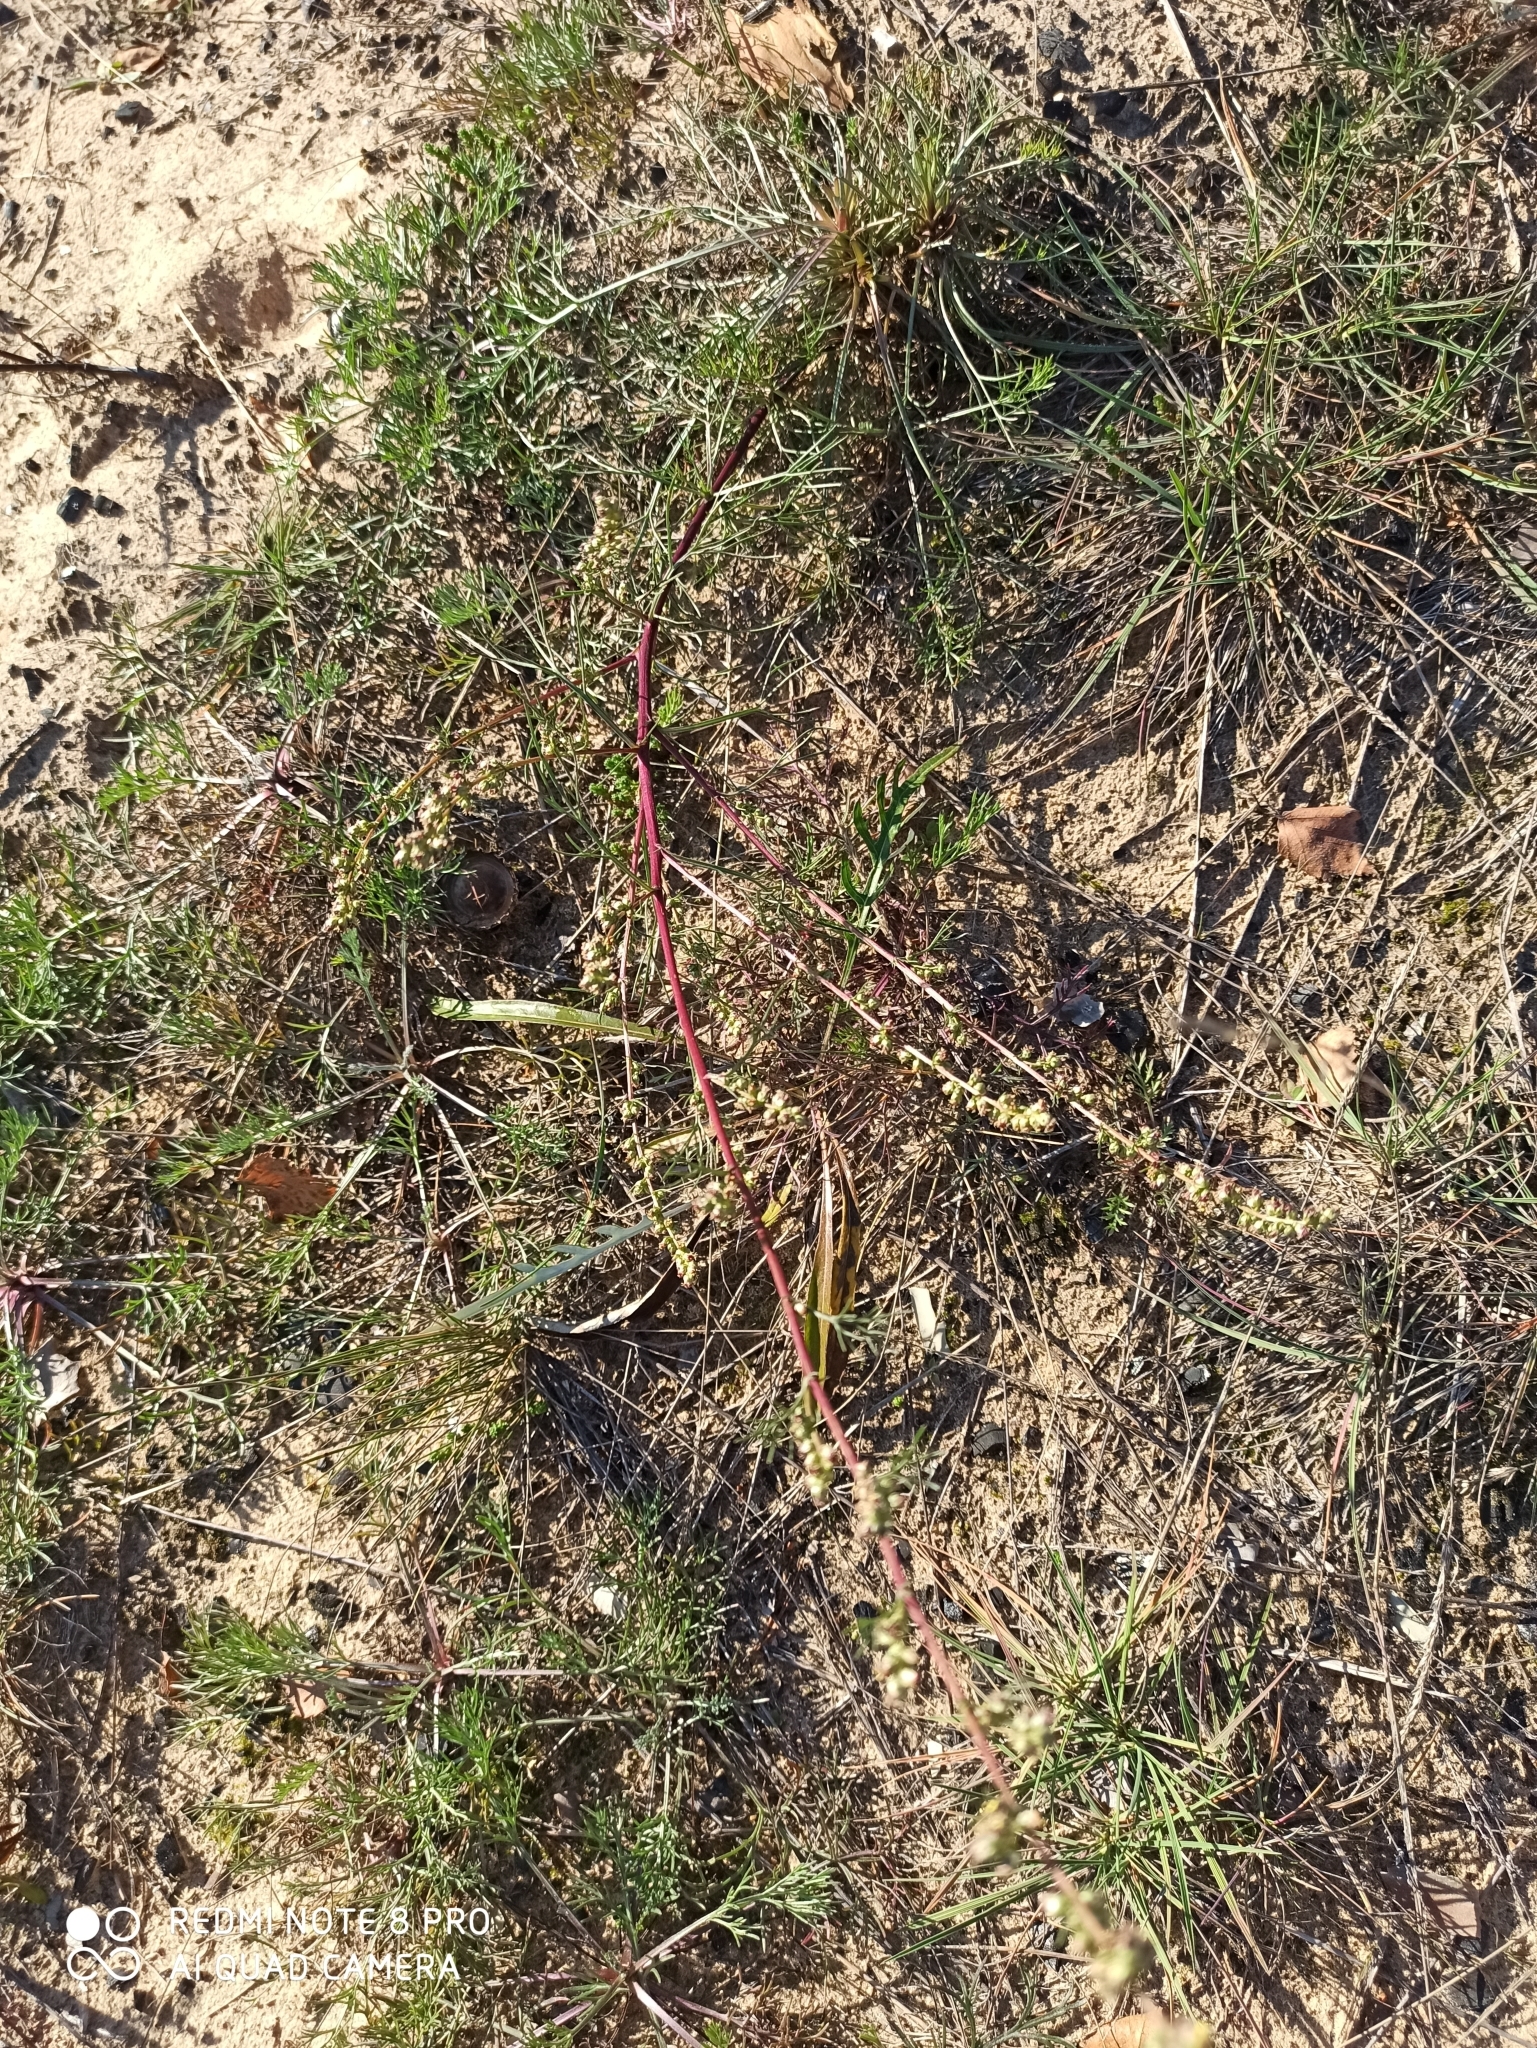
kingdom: Plantae
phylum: Tracheophyta
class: Magnoliopsida
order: Asterales
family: Asteraceae
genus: Artemisia
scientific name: Artemisia campestris
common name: Field wormwood
